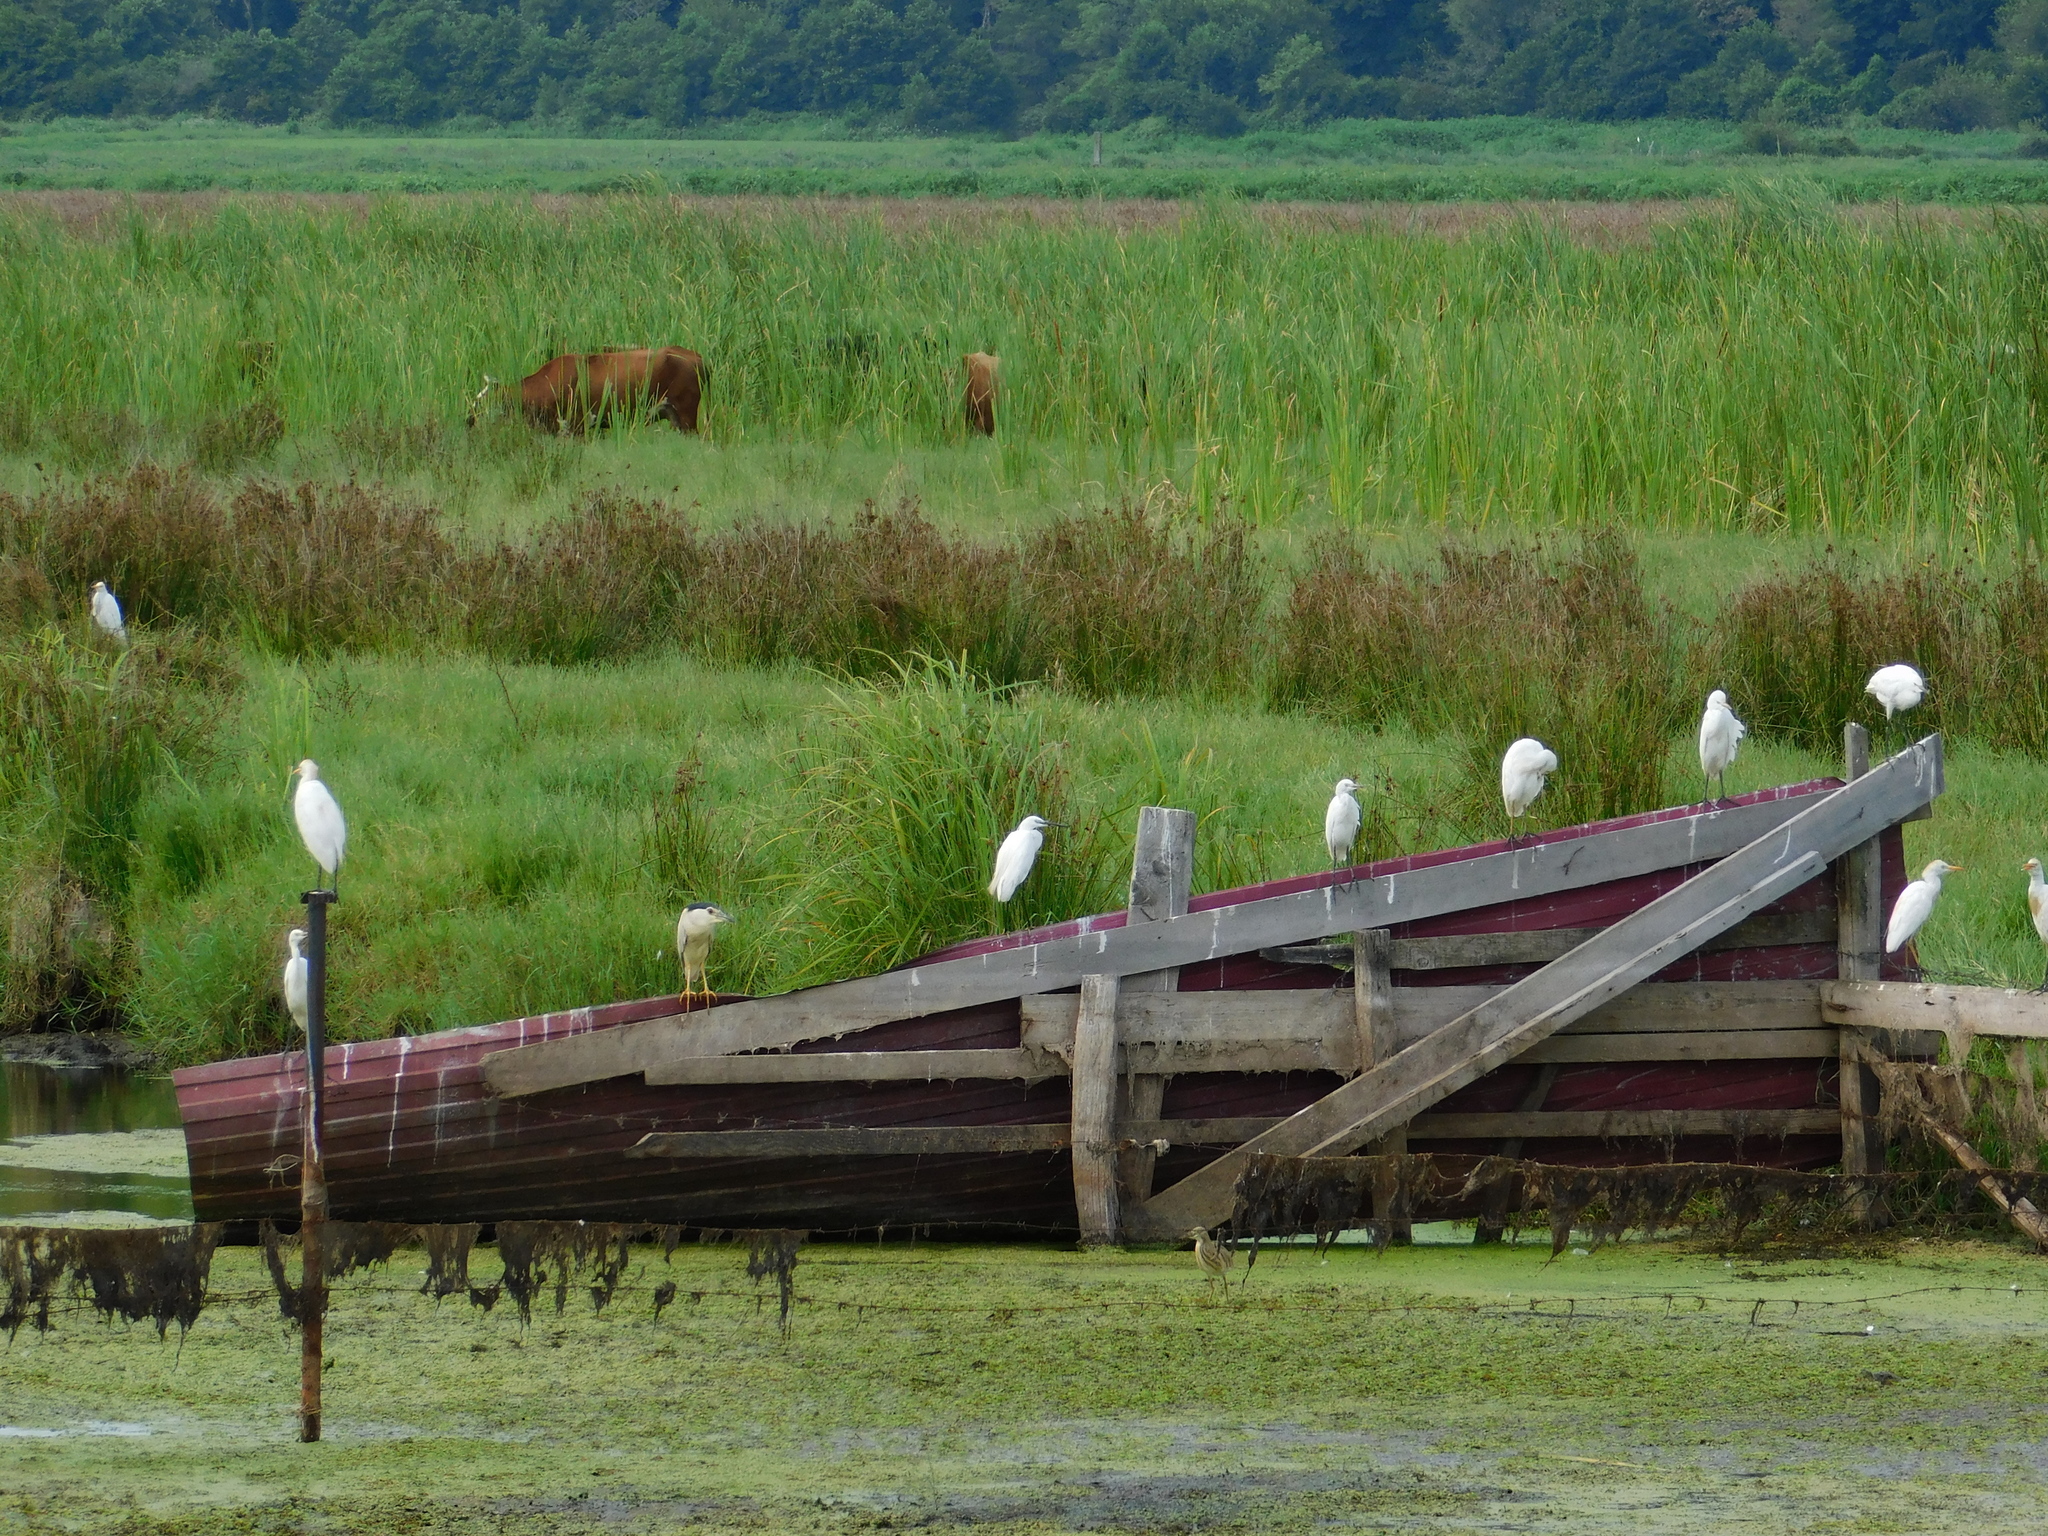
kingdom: Animalia
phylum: Chordata
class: Aves
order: Pelecaniformes
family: Ardeidae
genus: Bubulcus
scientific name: Bubulcus ibis
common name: Cattle egret
